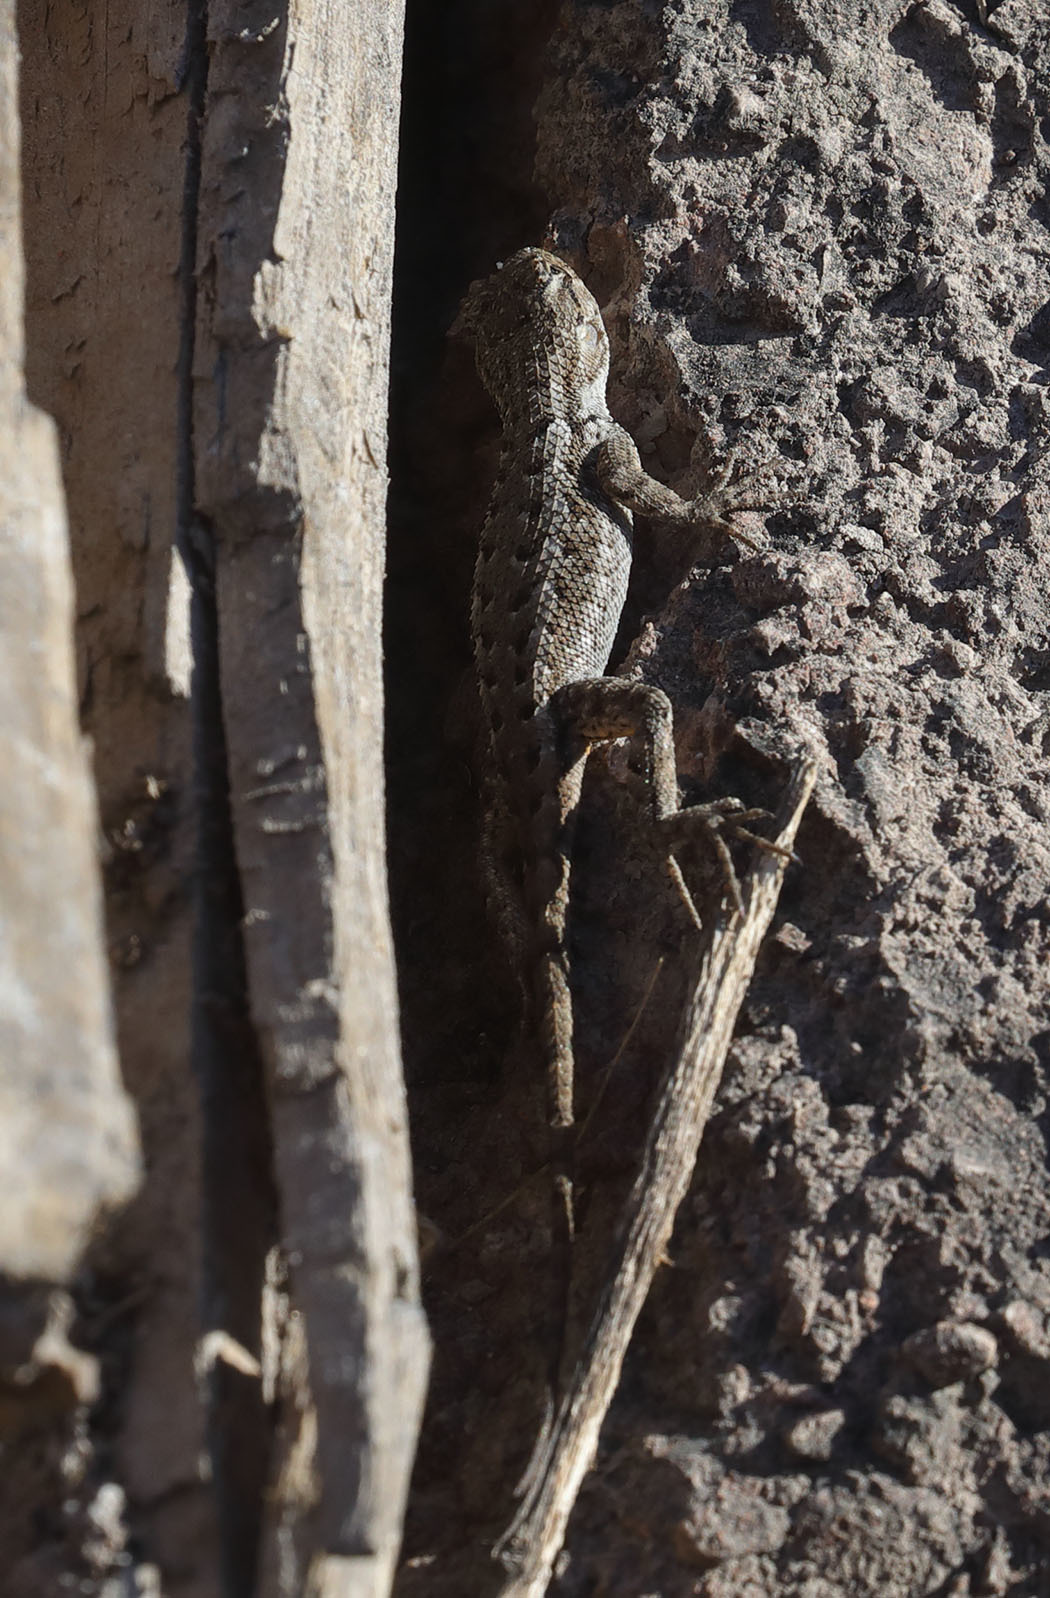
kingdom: Animalia
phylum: Chordata
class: Squamata
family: Phrynosomatidae
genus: Sceloporus
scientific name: Sceloporus occidentalis
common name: Western fence lizard
